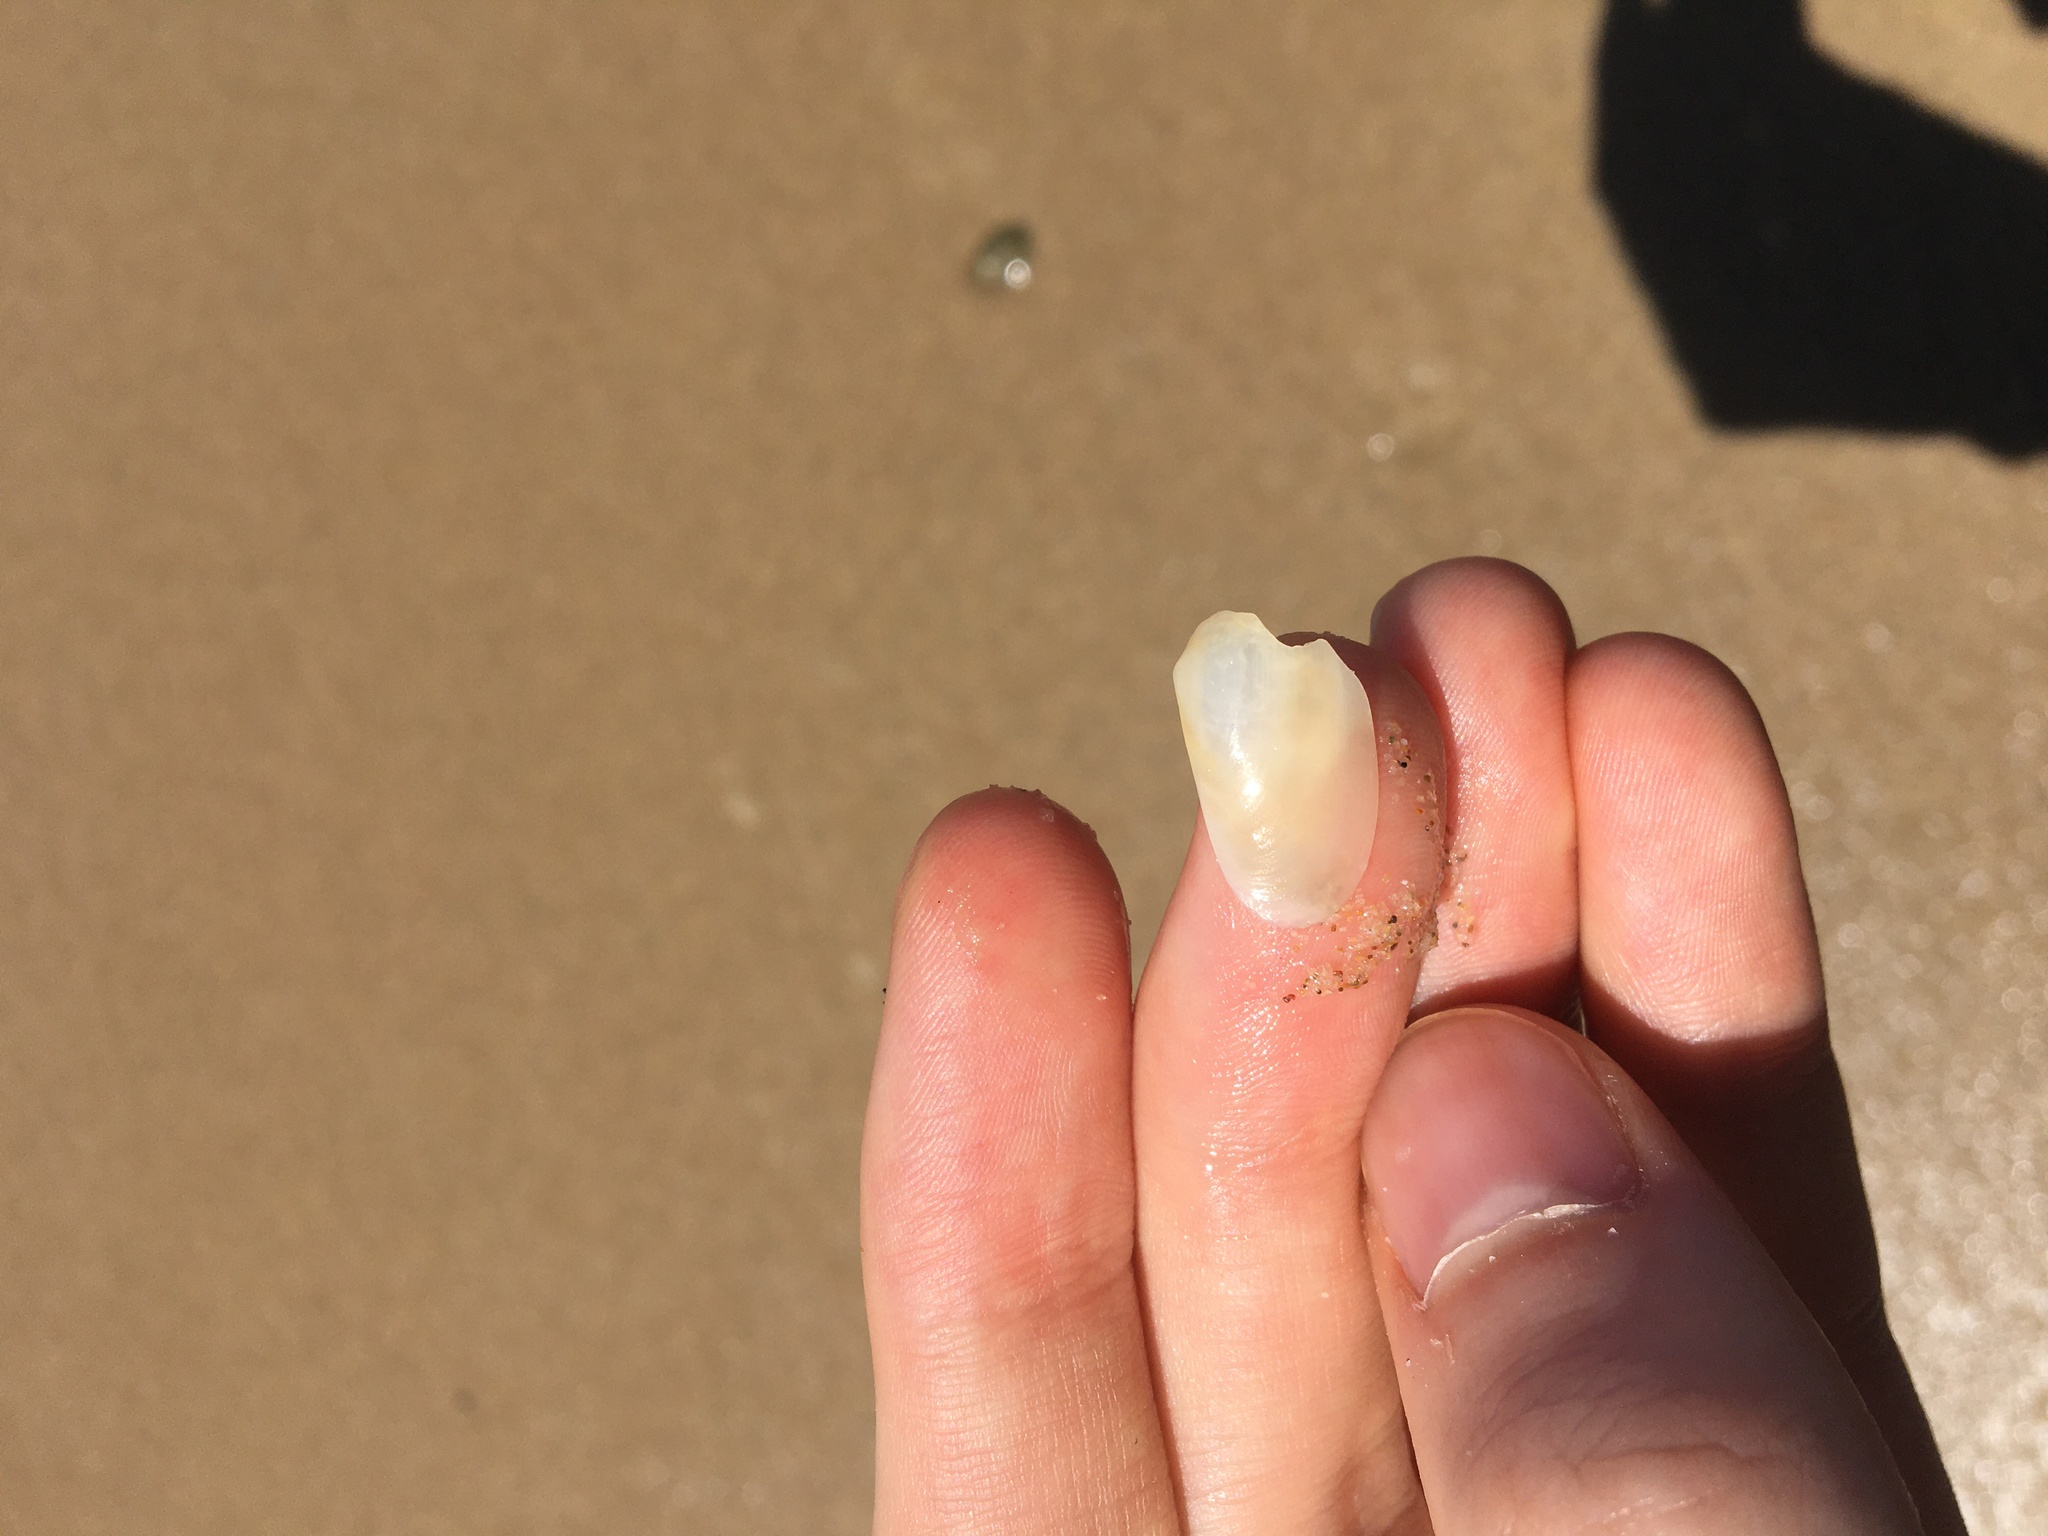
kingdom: Animalia
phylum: Mollusca
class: Bivalvia
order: Venerida
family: Mesodesmatidae
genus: Paphies
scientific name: Paphies angusta
